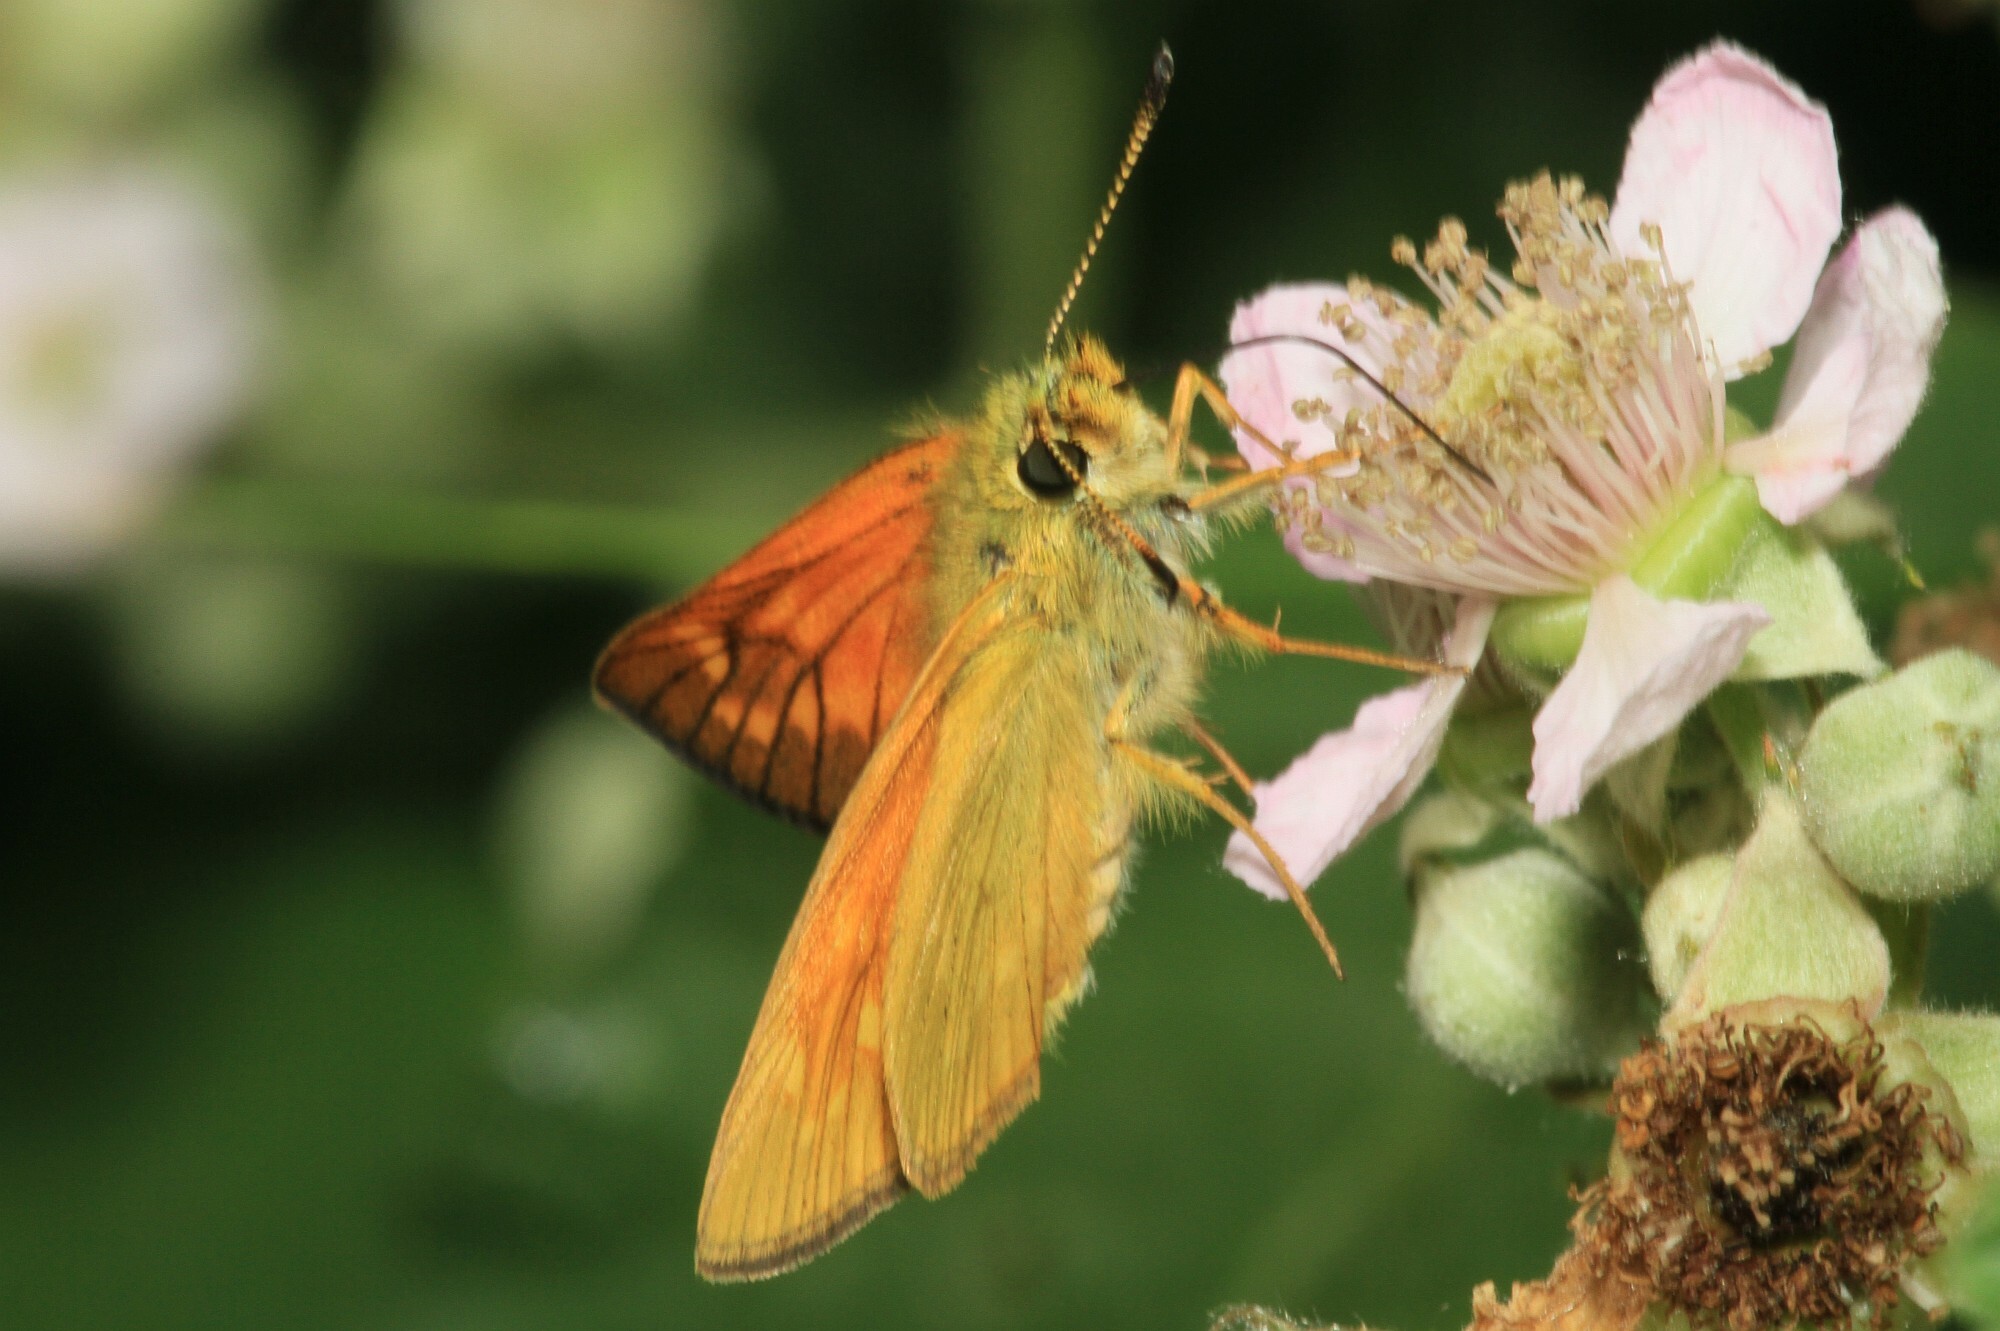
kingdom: Animalia
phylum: Arthropoda
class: Insecta
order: Lepidoptera
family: Hesperiidae
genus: Ochlodes
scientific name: Ochlodes venata
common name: Large skipper
